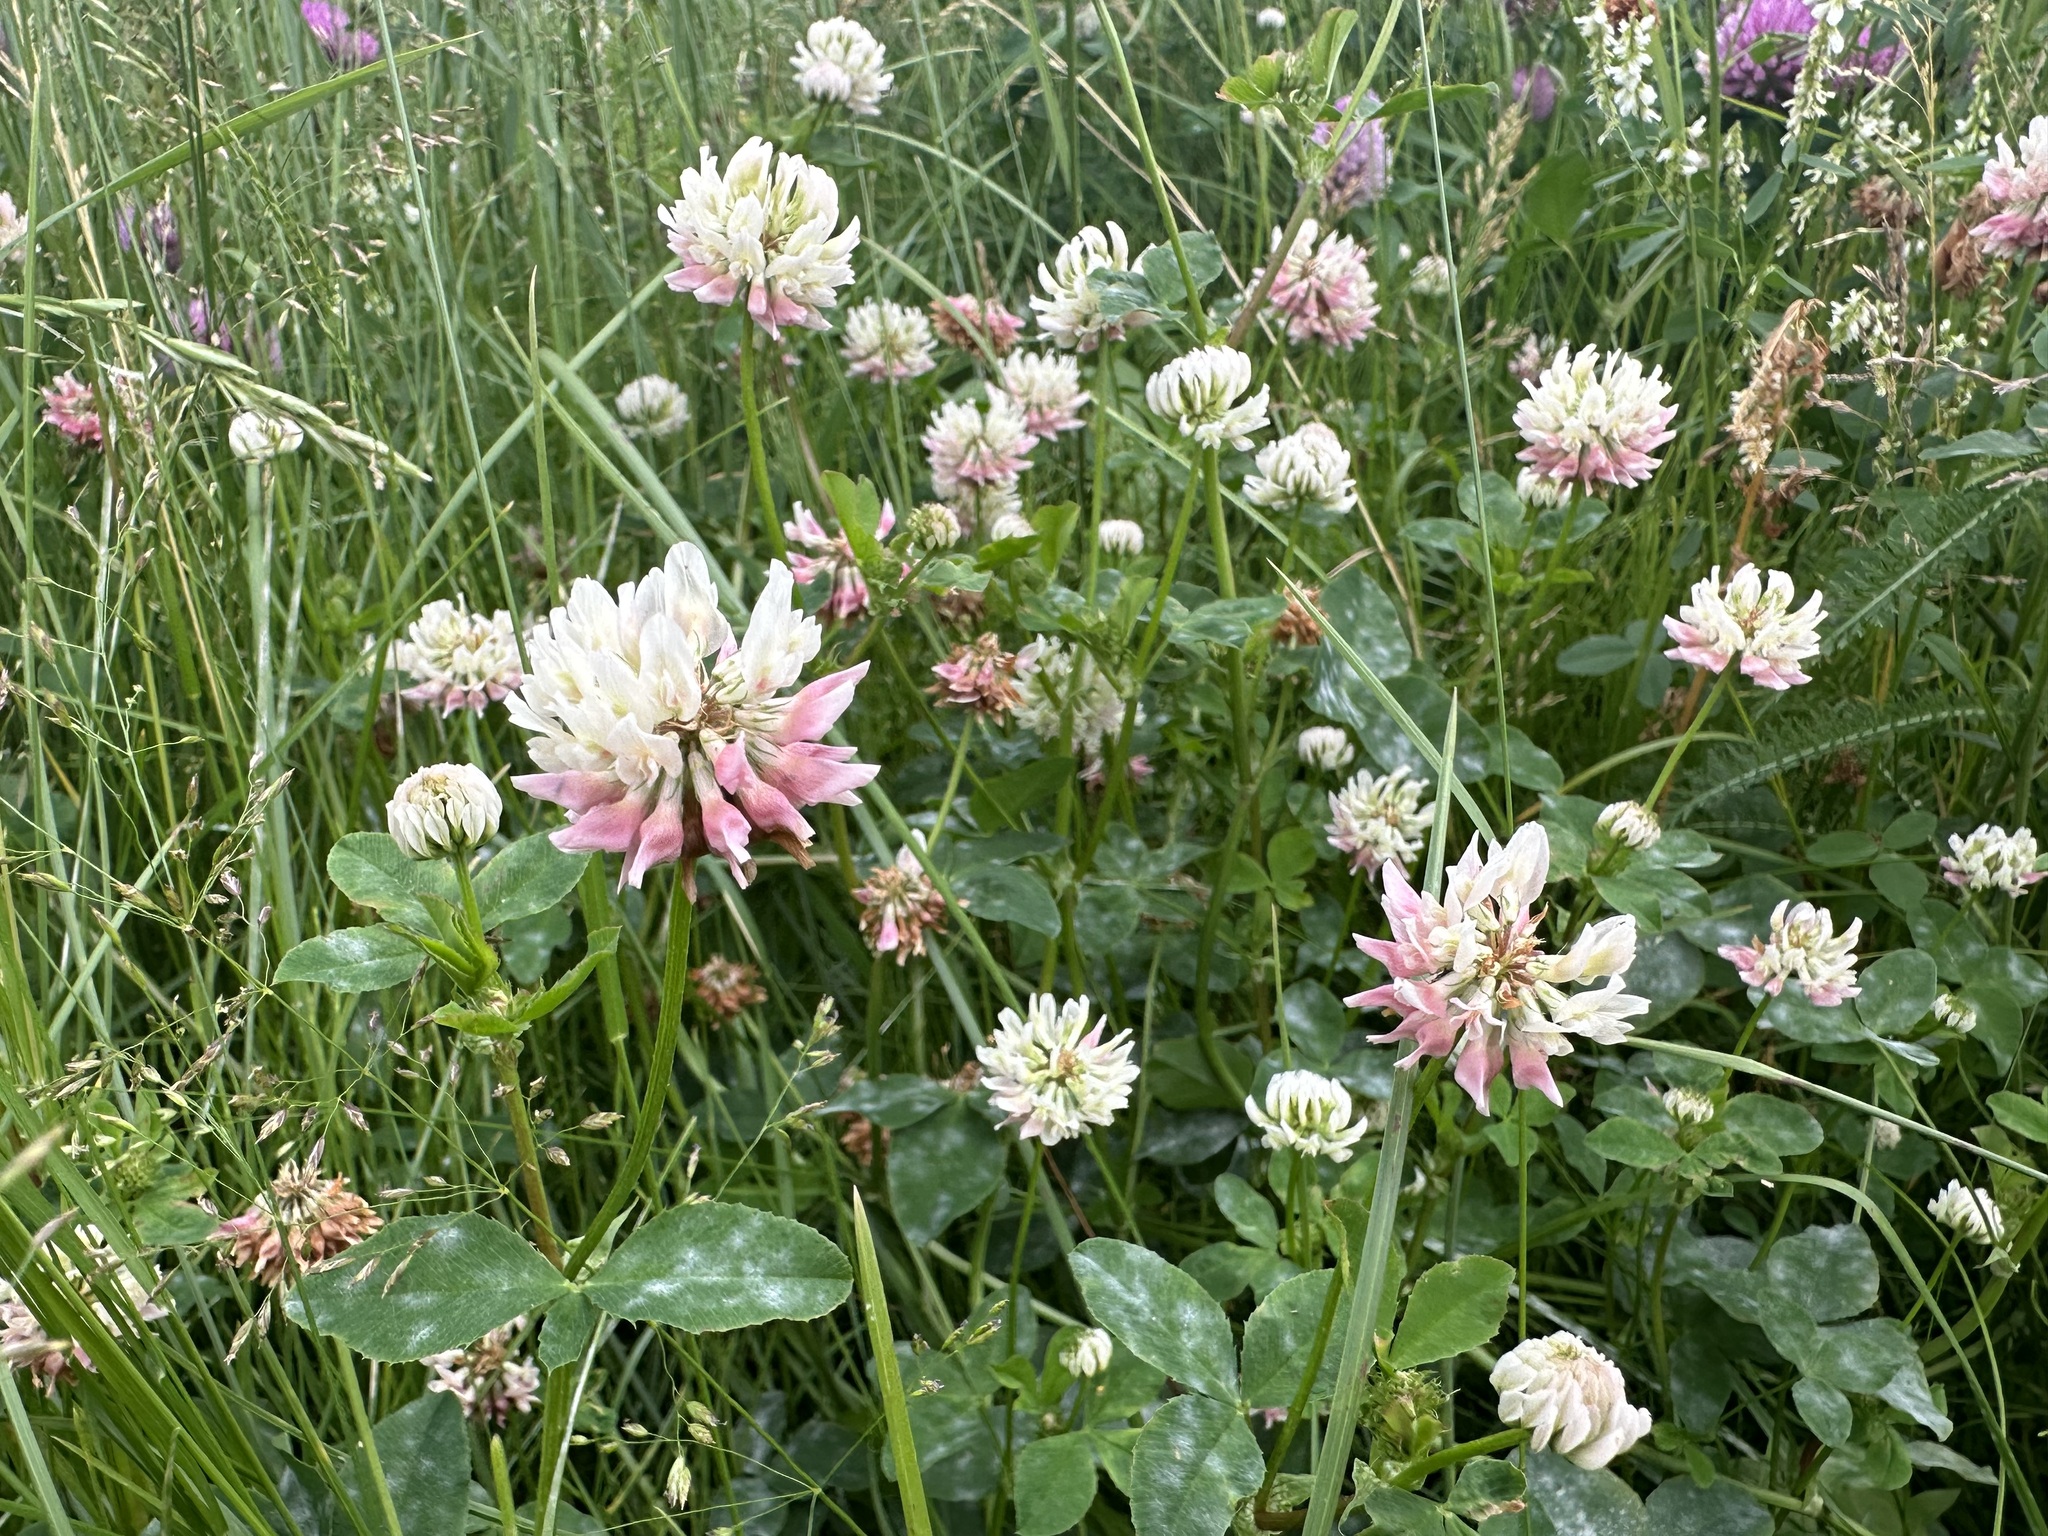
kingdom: Plantae
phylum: Tracheophyta
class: Magnoliopsida
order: Fabales
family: Fabaceae
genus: Trifolium
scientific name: Trifolium hybridum
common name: Alsike clover
